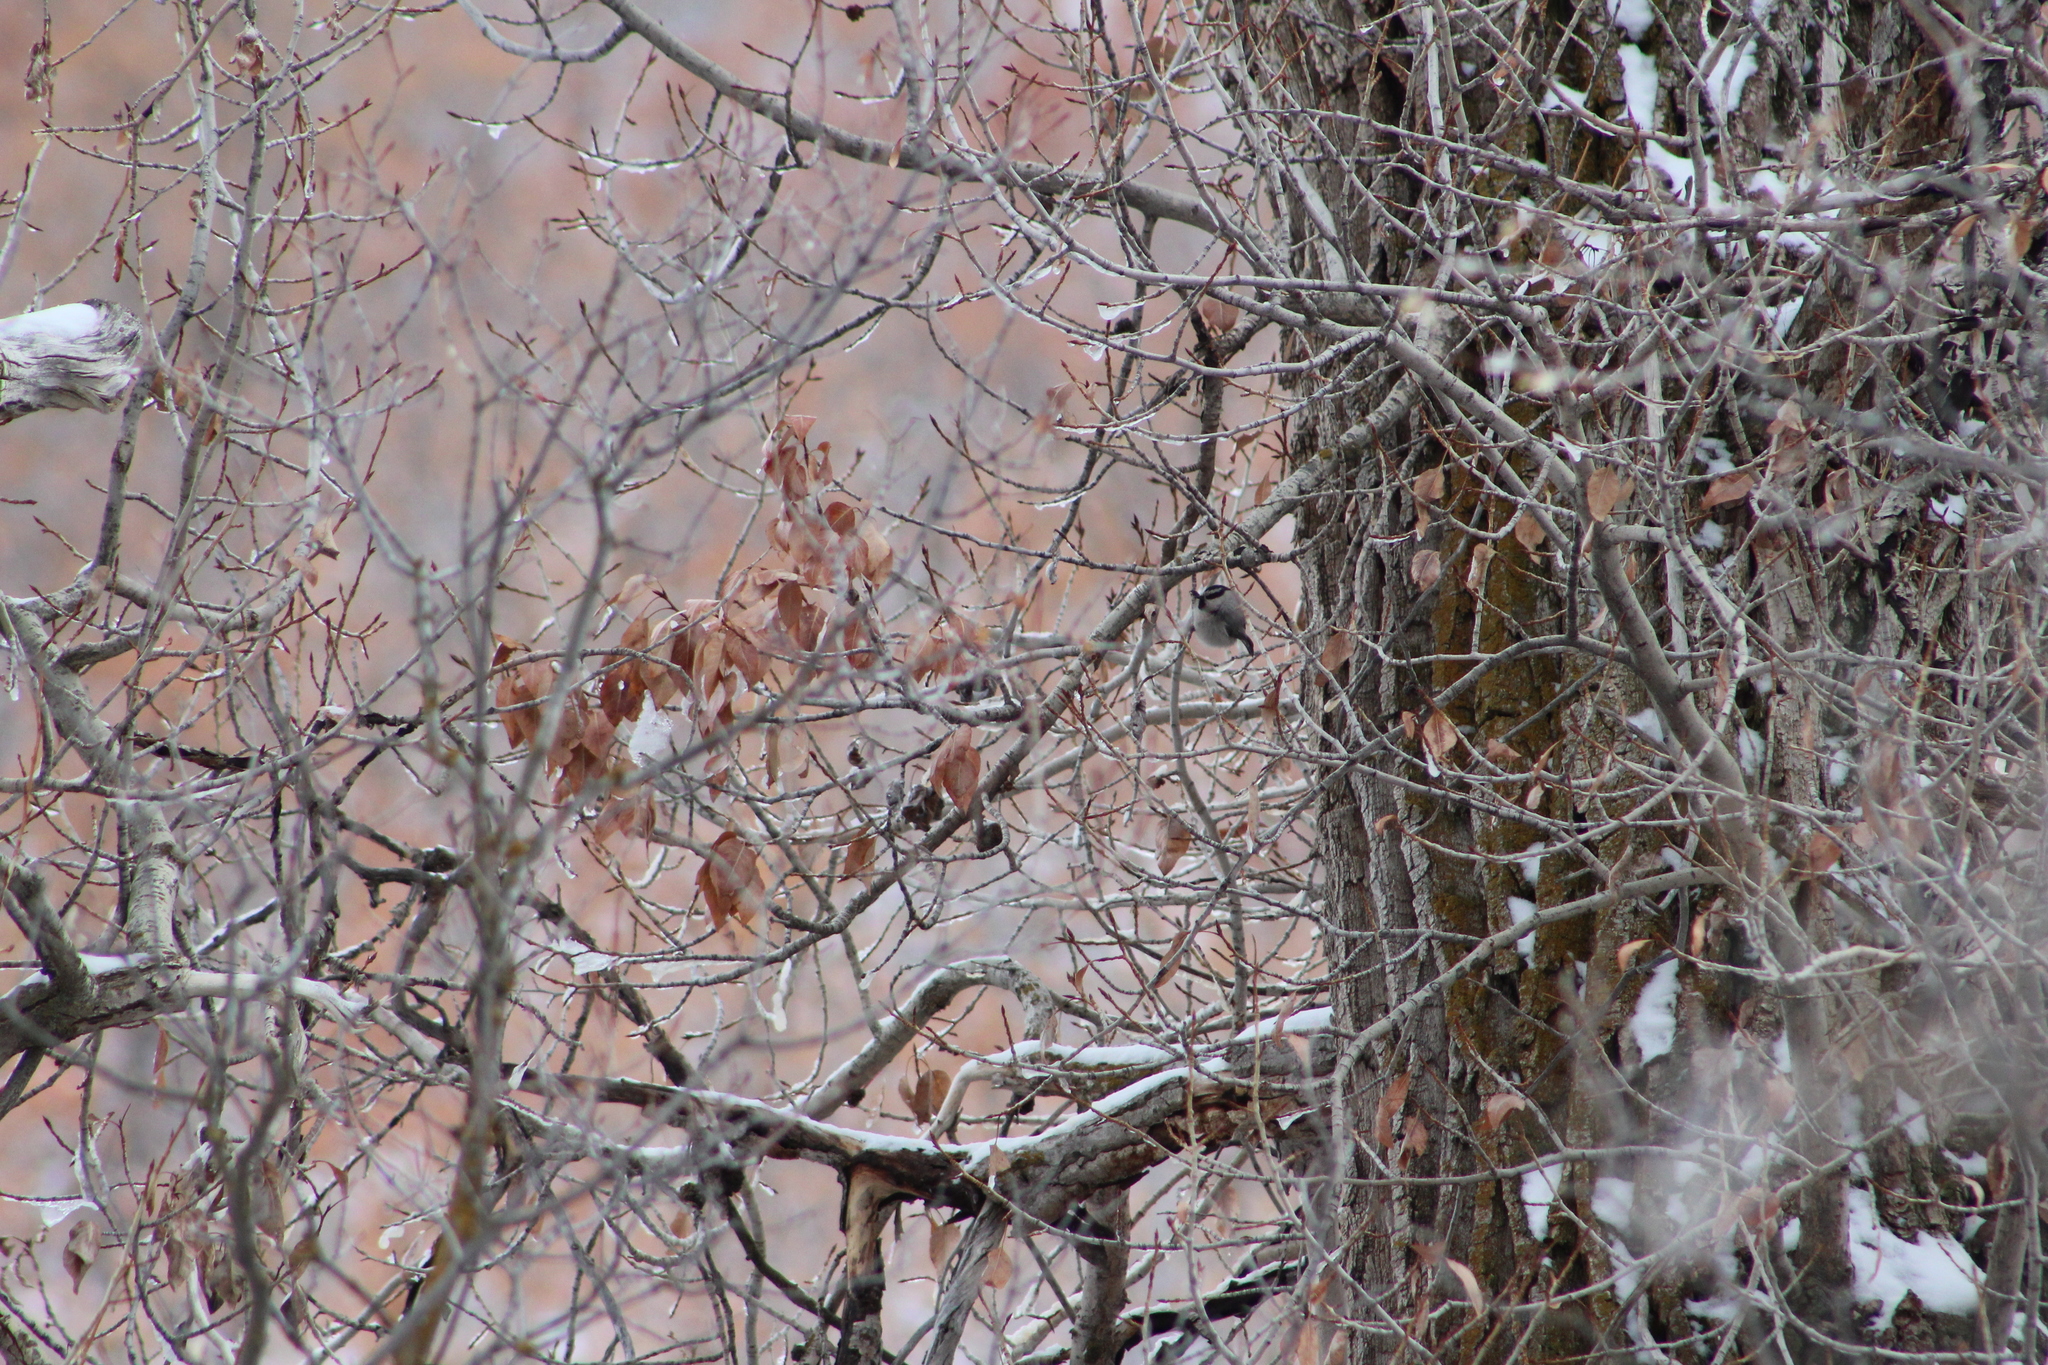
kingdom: Animalia
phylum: Chordata
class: Aves
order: Passeriformes
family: Paridae
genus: Poecile
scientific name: Poecile gambeli
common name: Mountain chickadee
